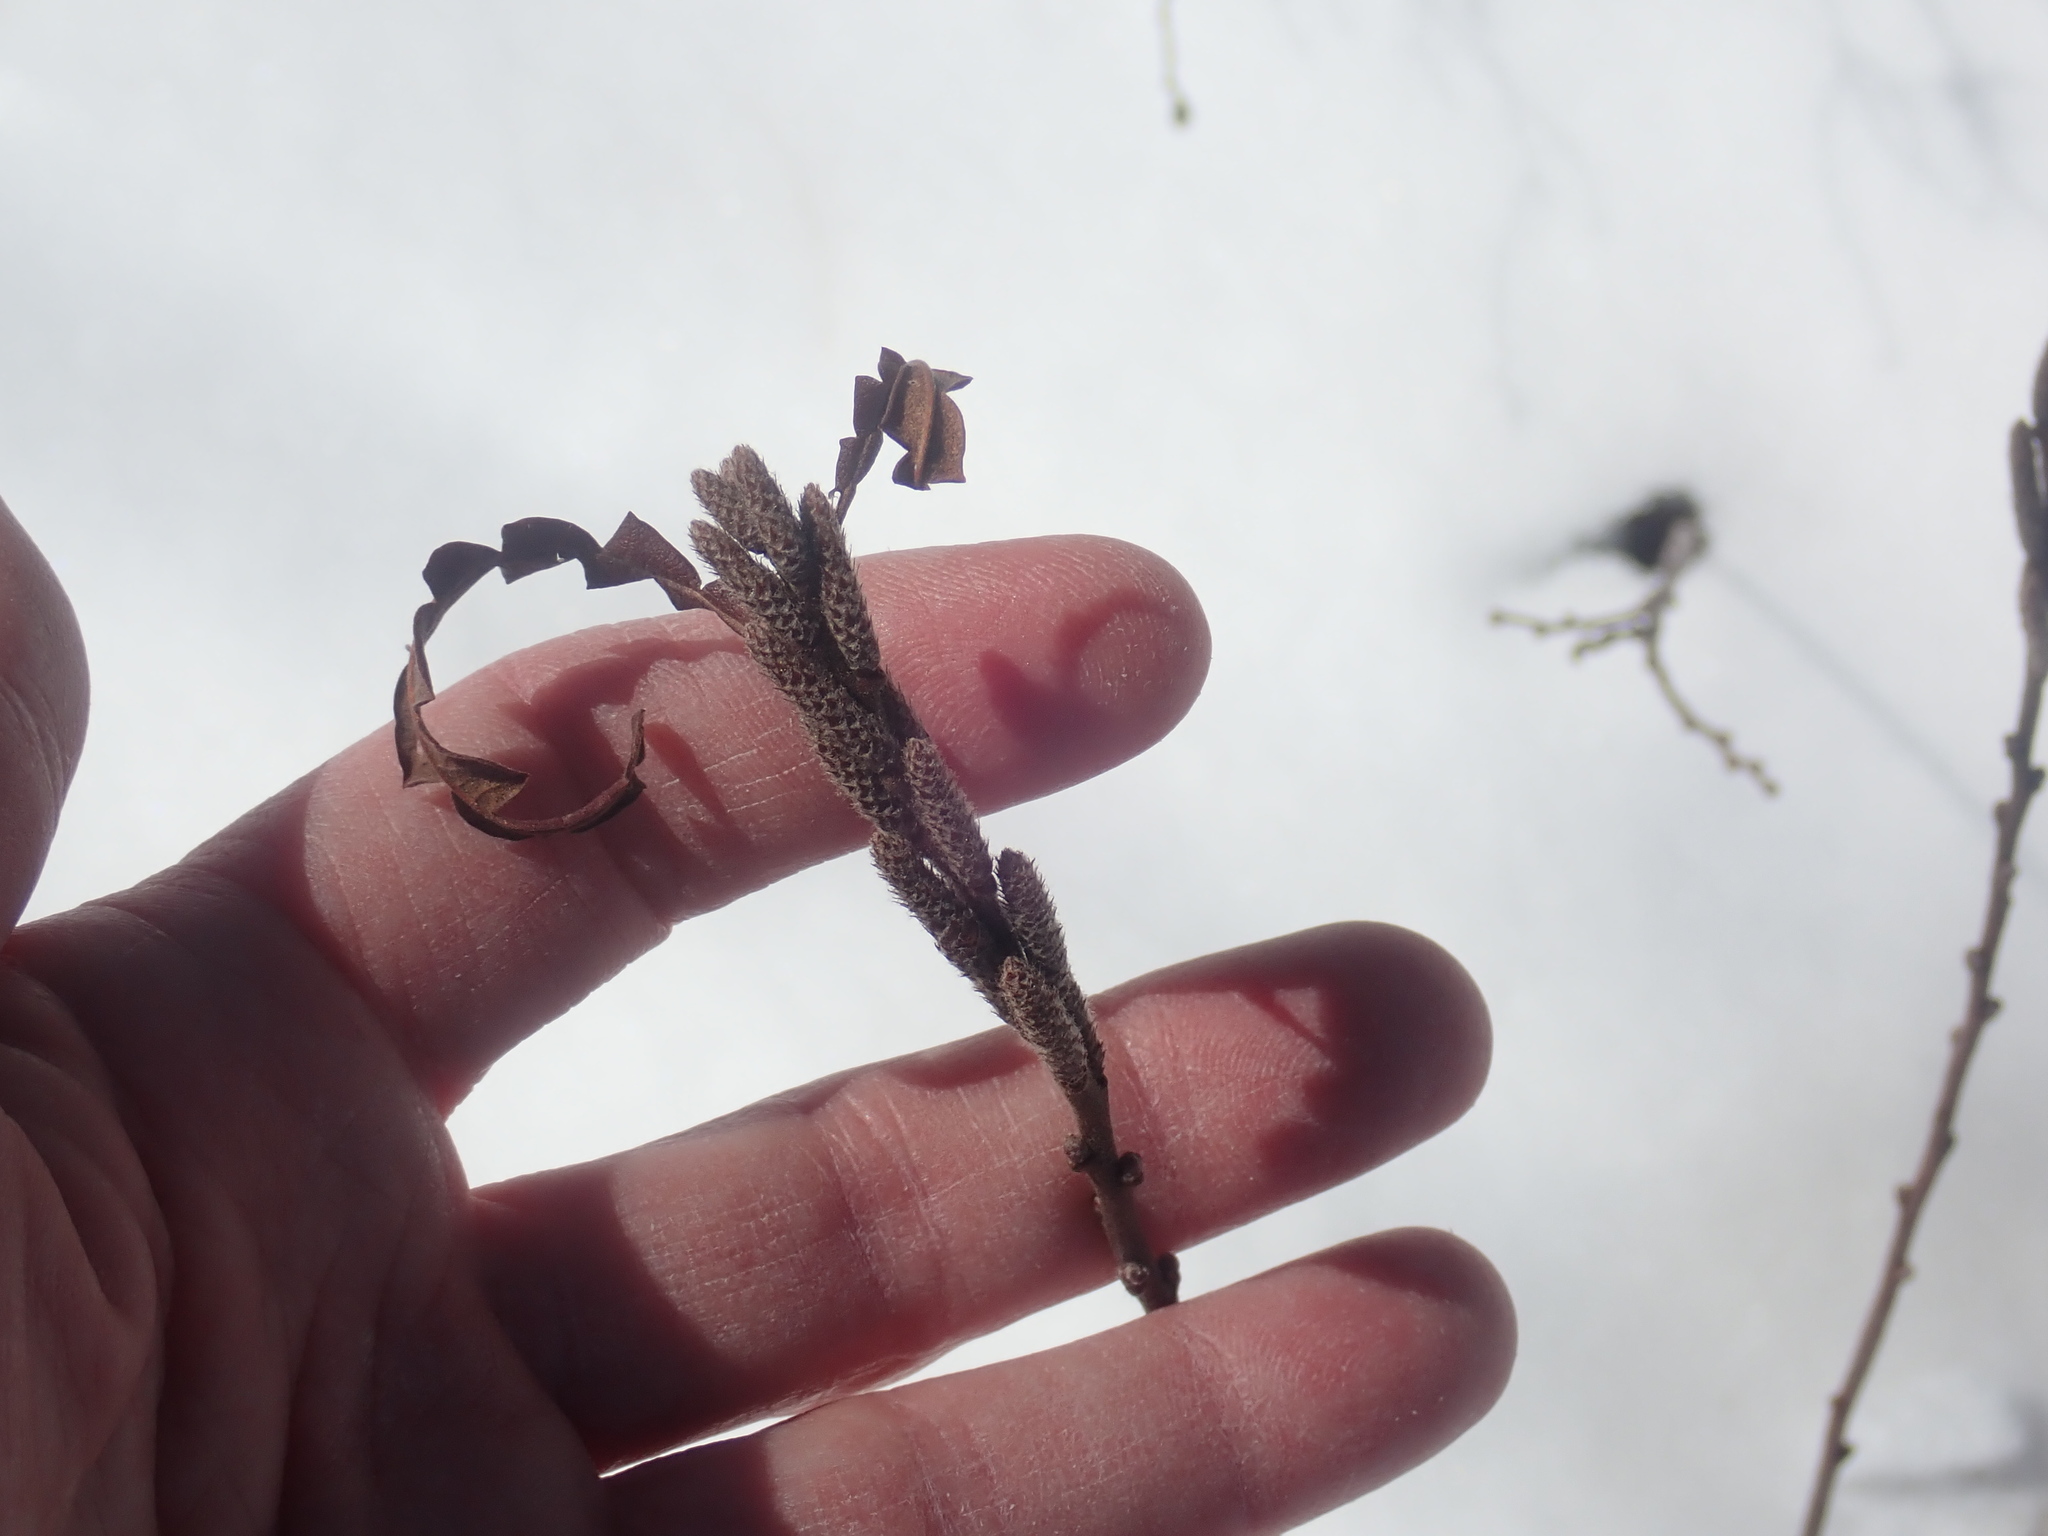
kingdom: Plantae
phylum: Tracheophyta
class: Magnoliopsida
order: Fagales
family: Myricaceae
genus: Comptonia
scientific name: Comptonia peregrina
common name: Sweet-fern
